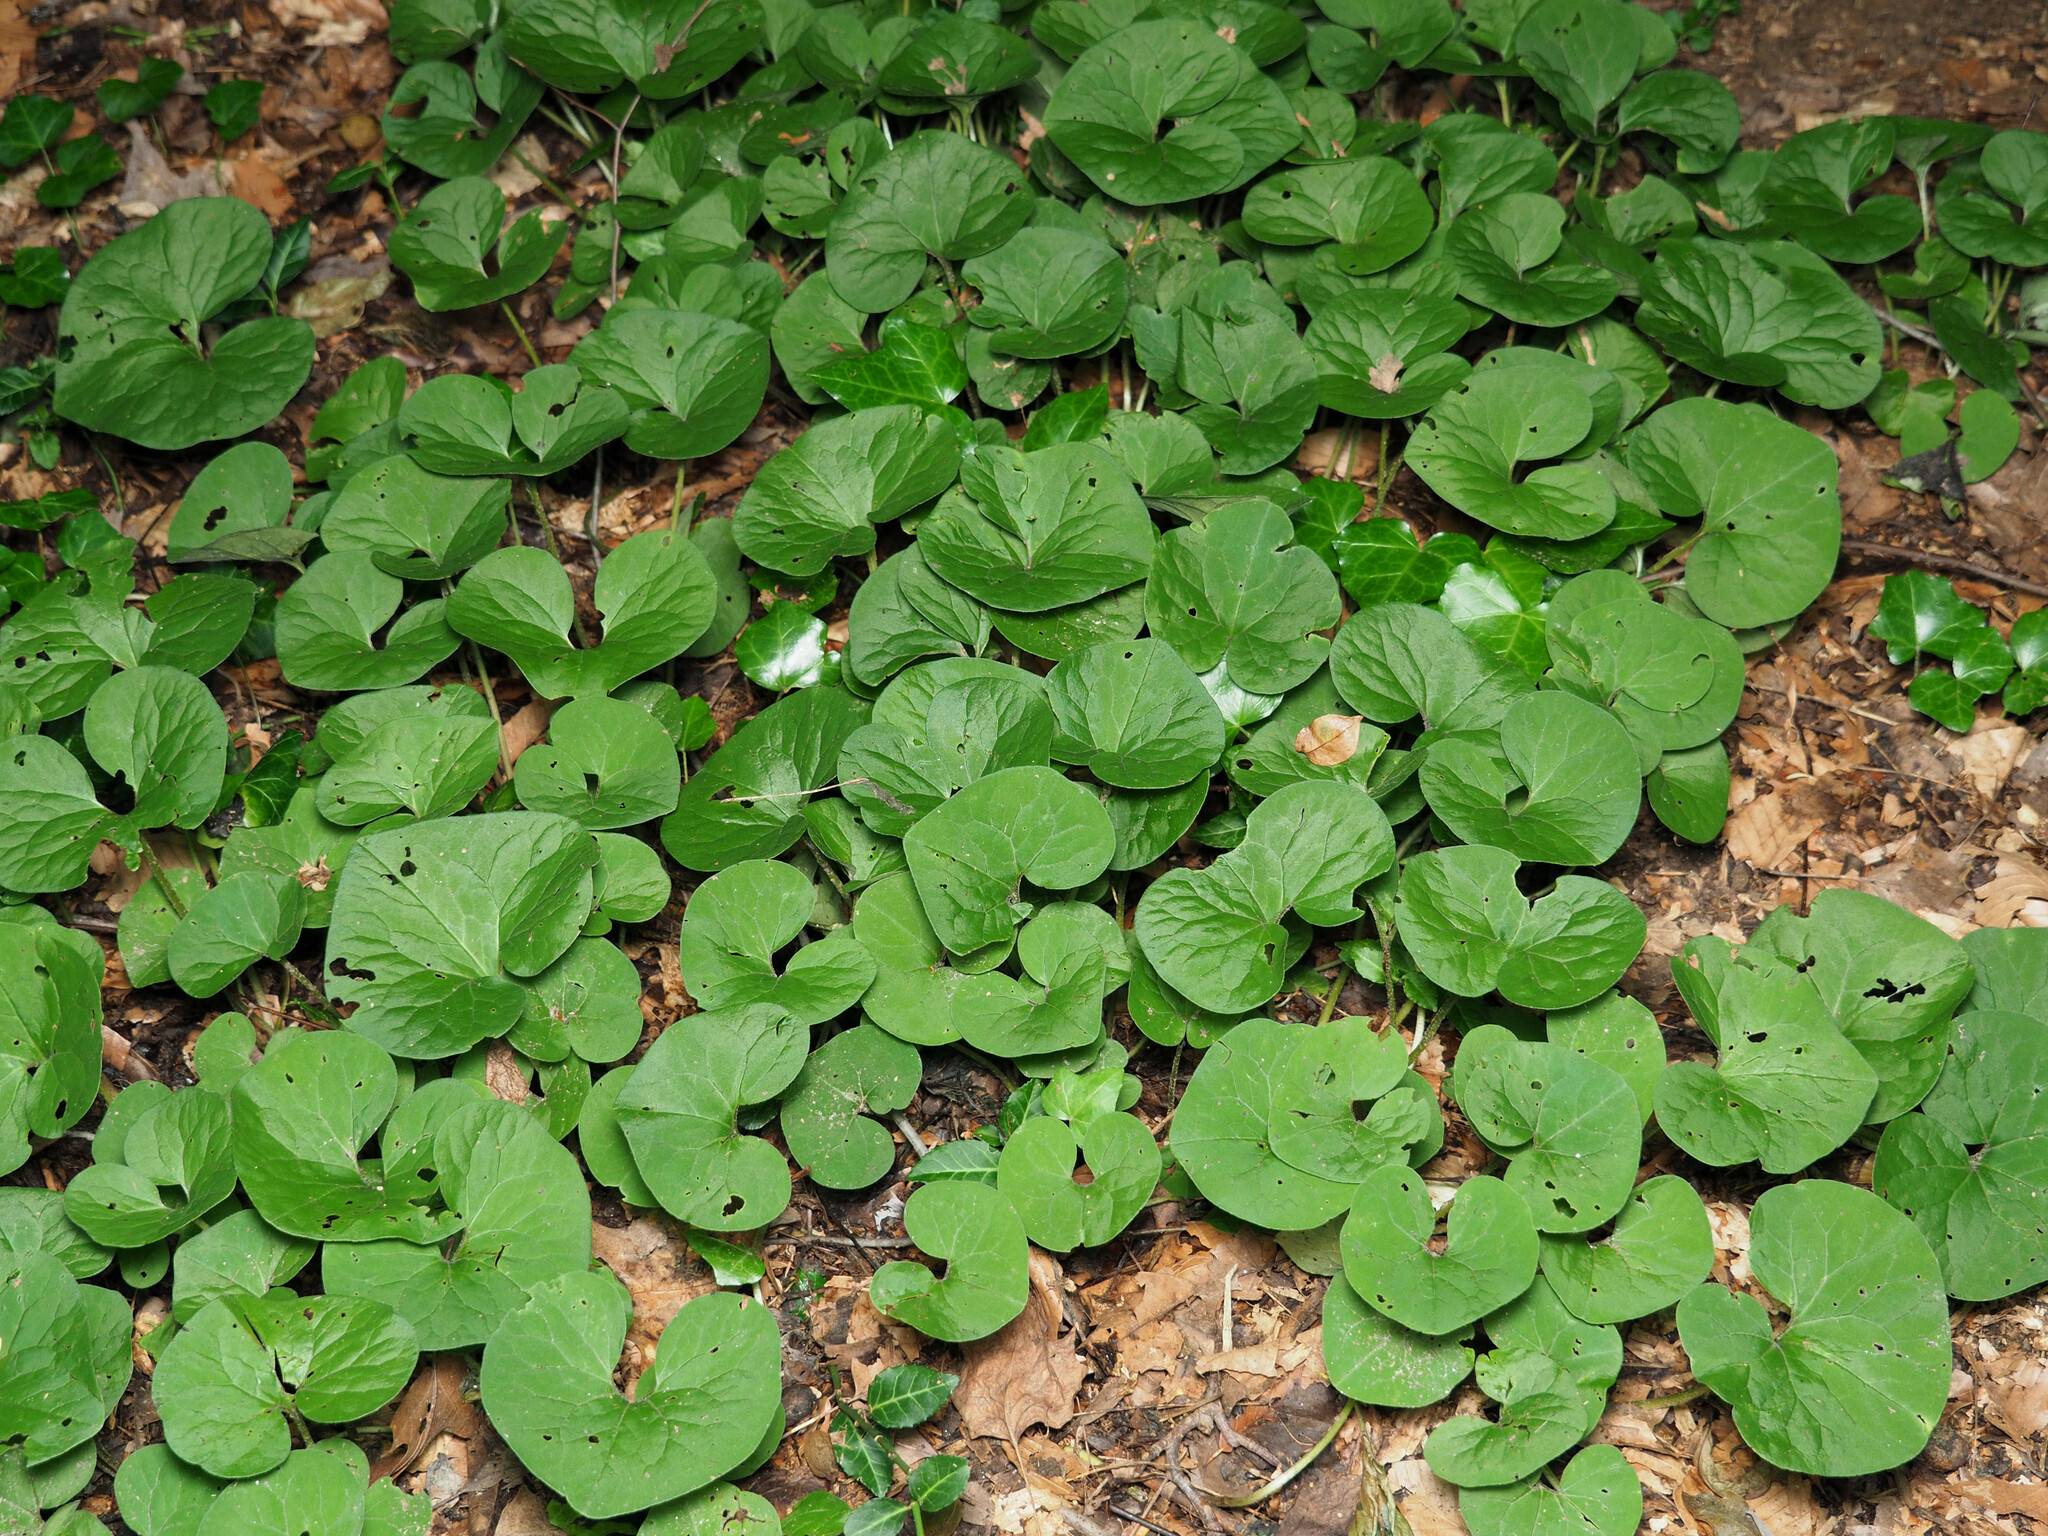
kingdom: Plantae
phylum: Tracheophyta
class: Magnoliopsida
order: Piperales
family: Aristolochiaceae
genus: Asarum
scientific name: Asarum canadense
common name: Wild ginger
